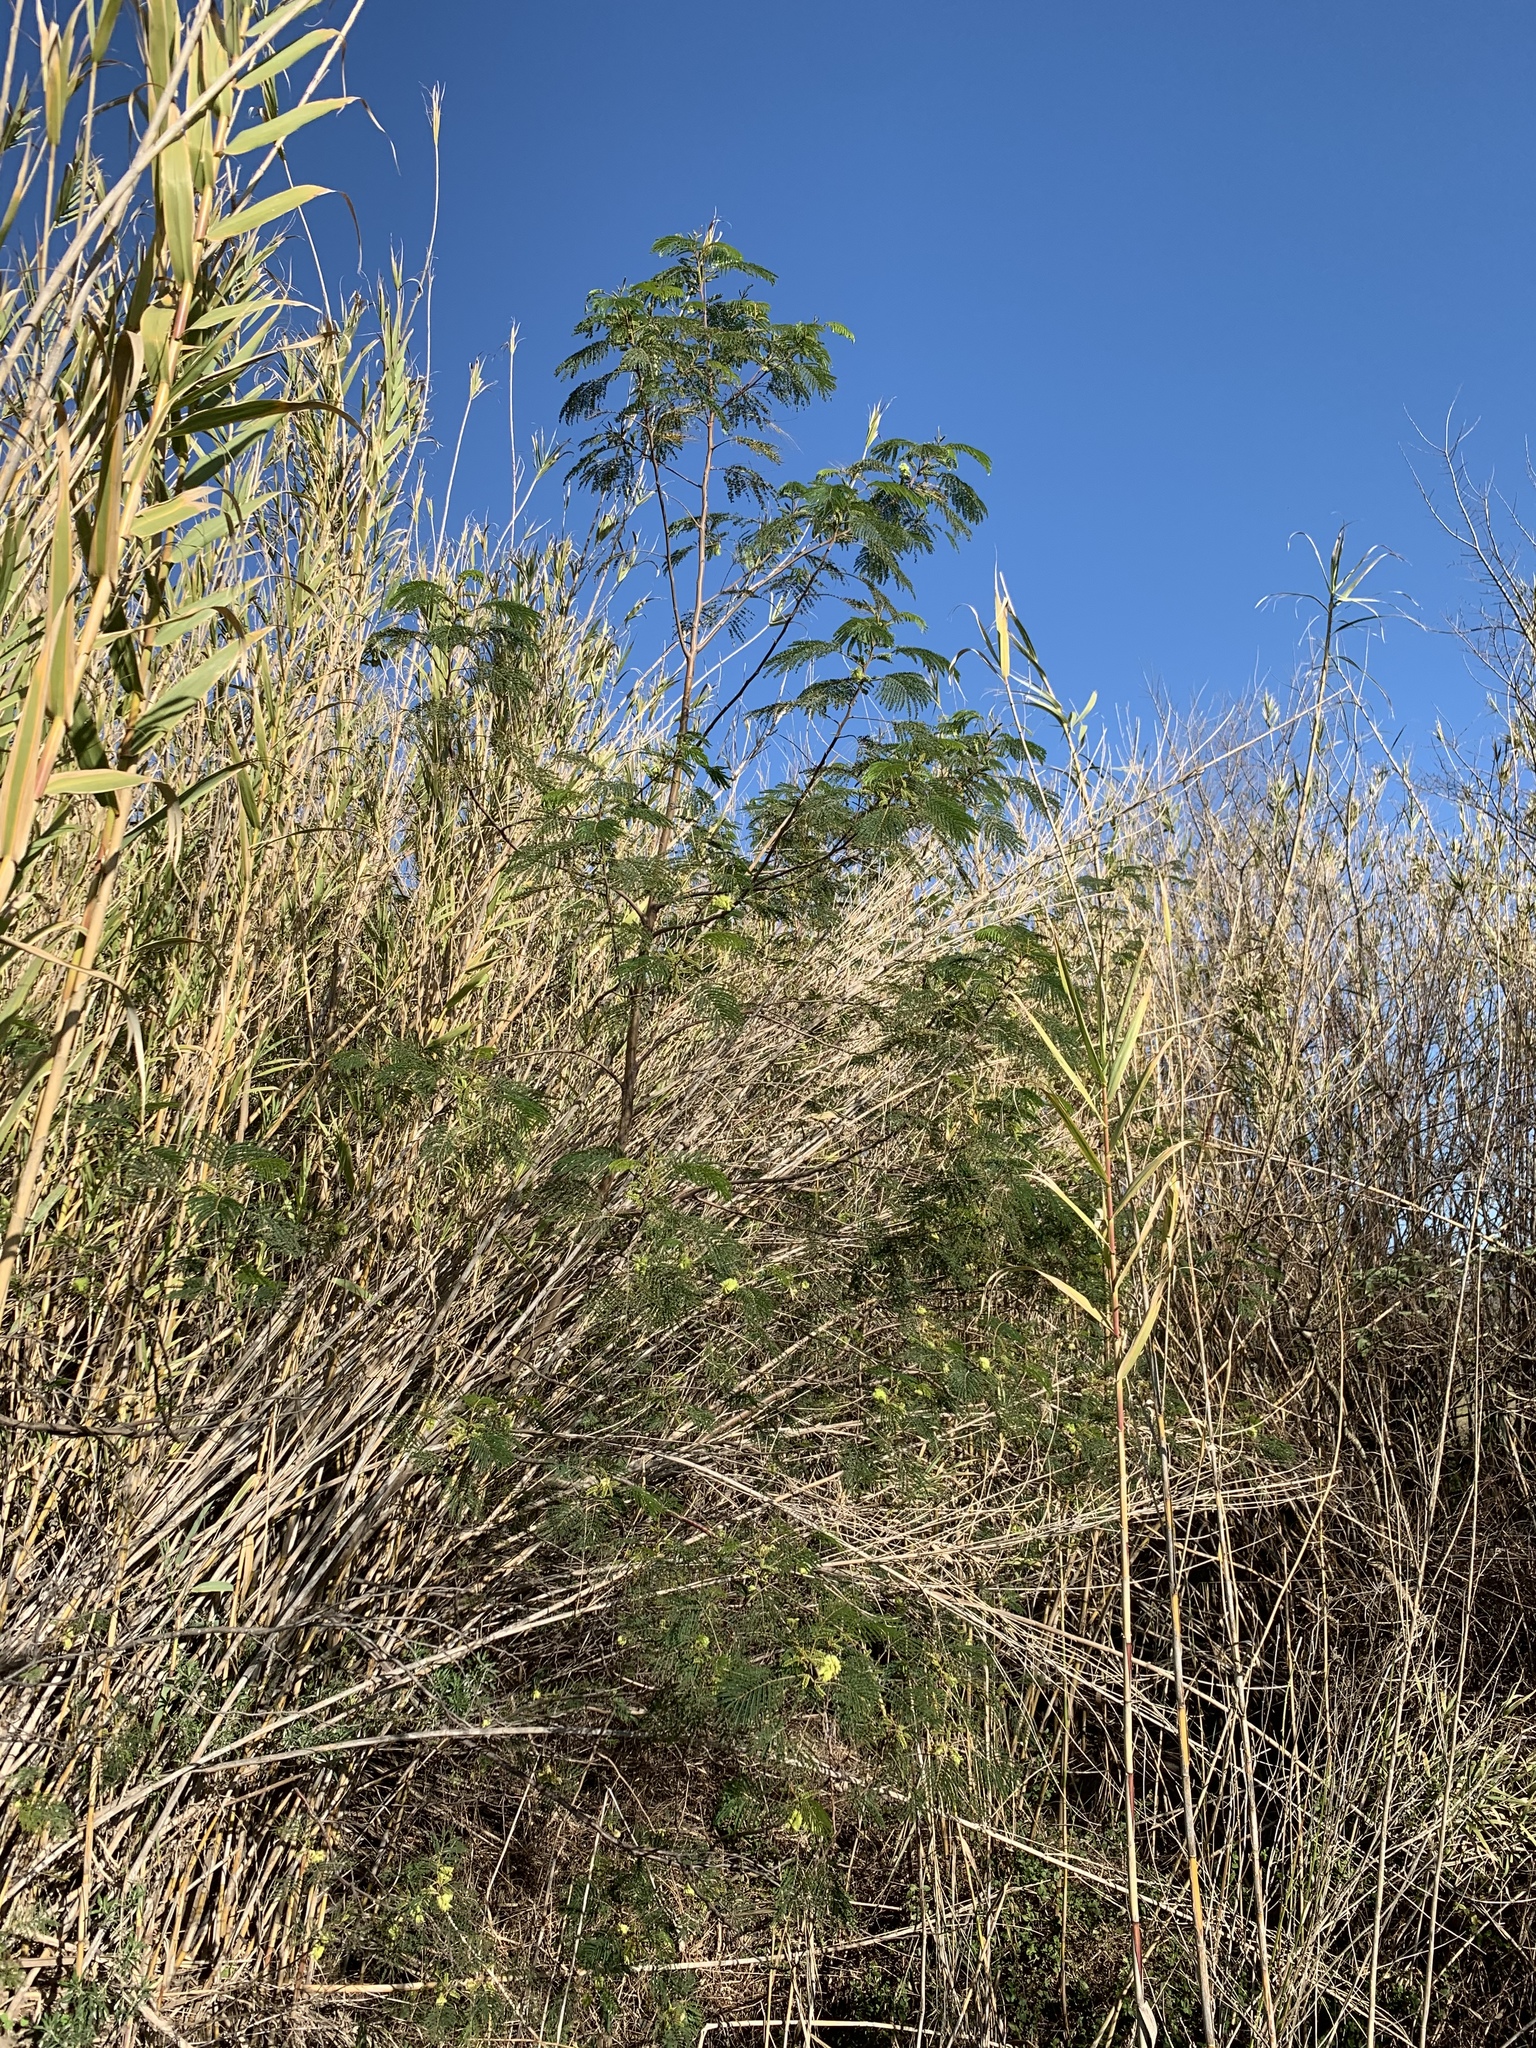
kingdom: Plantae
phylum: Tracheophyta
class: Magnoliopsida
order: Fabales
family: Fabaceae
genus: Paraserianthes
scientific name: Paraserianthes lophantha
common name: Plume albizia
